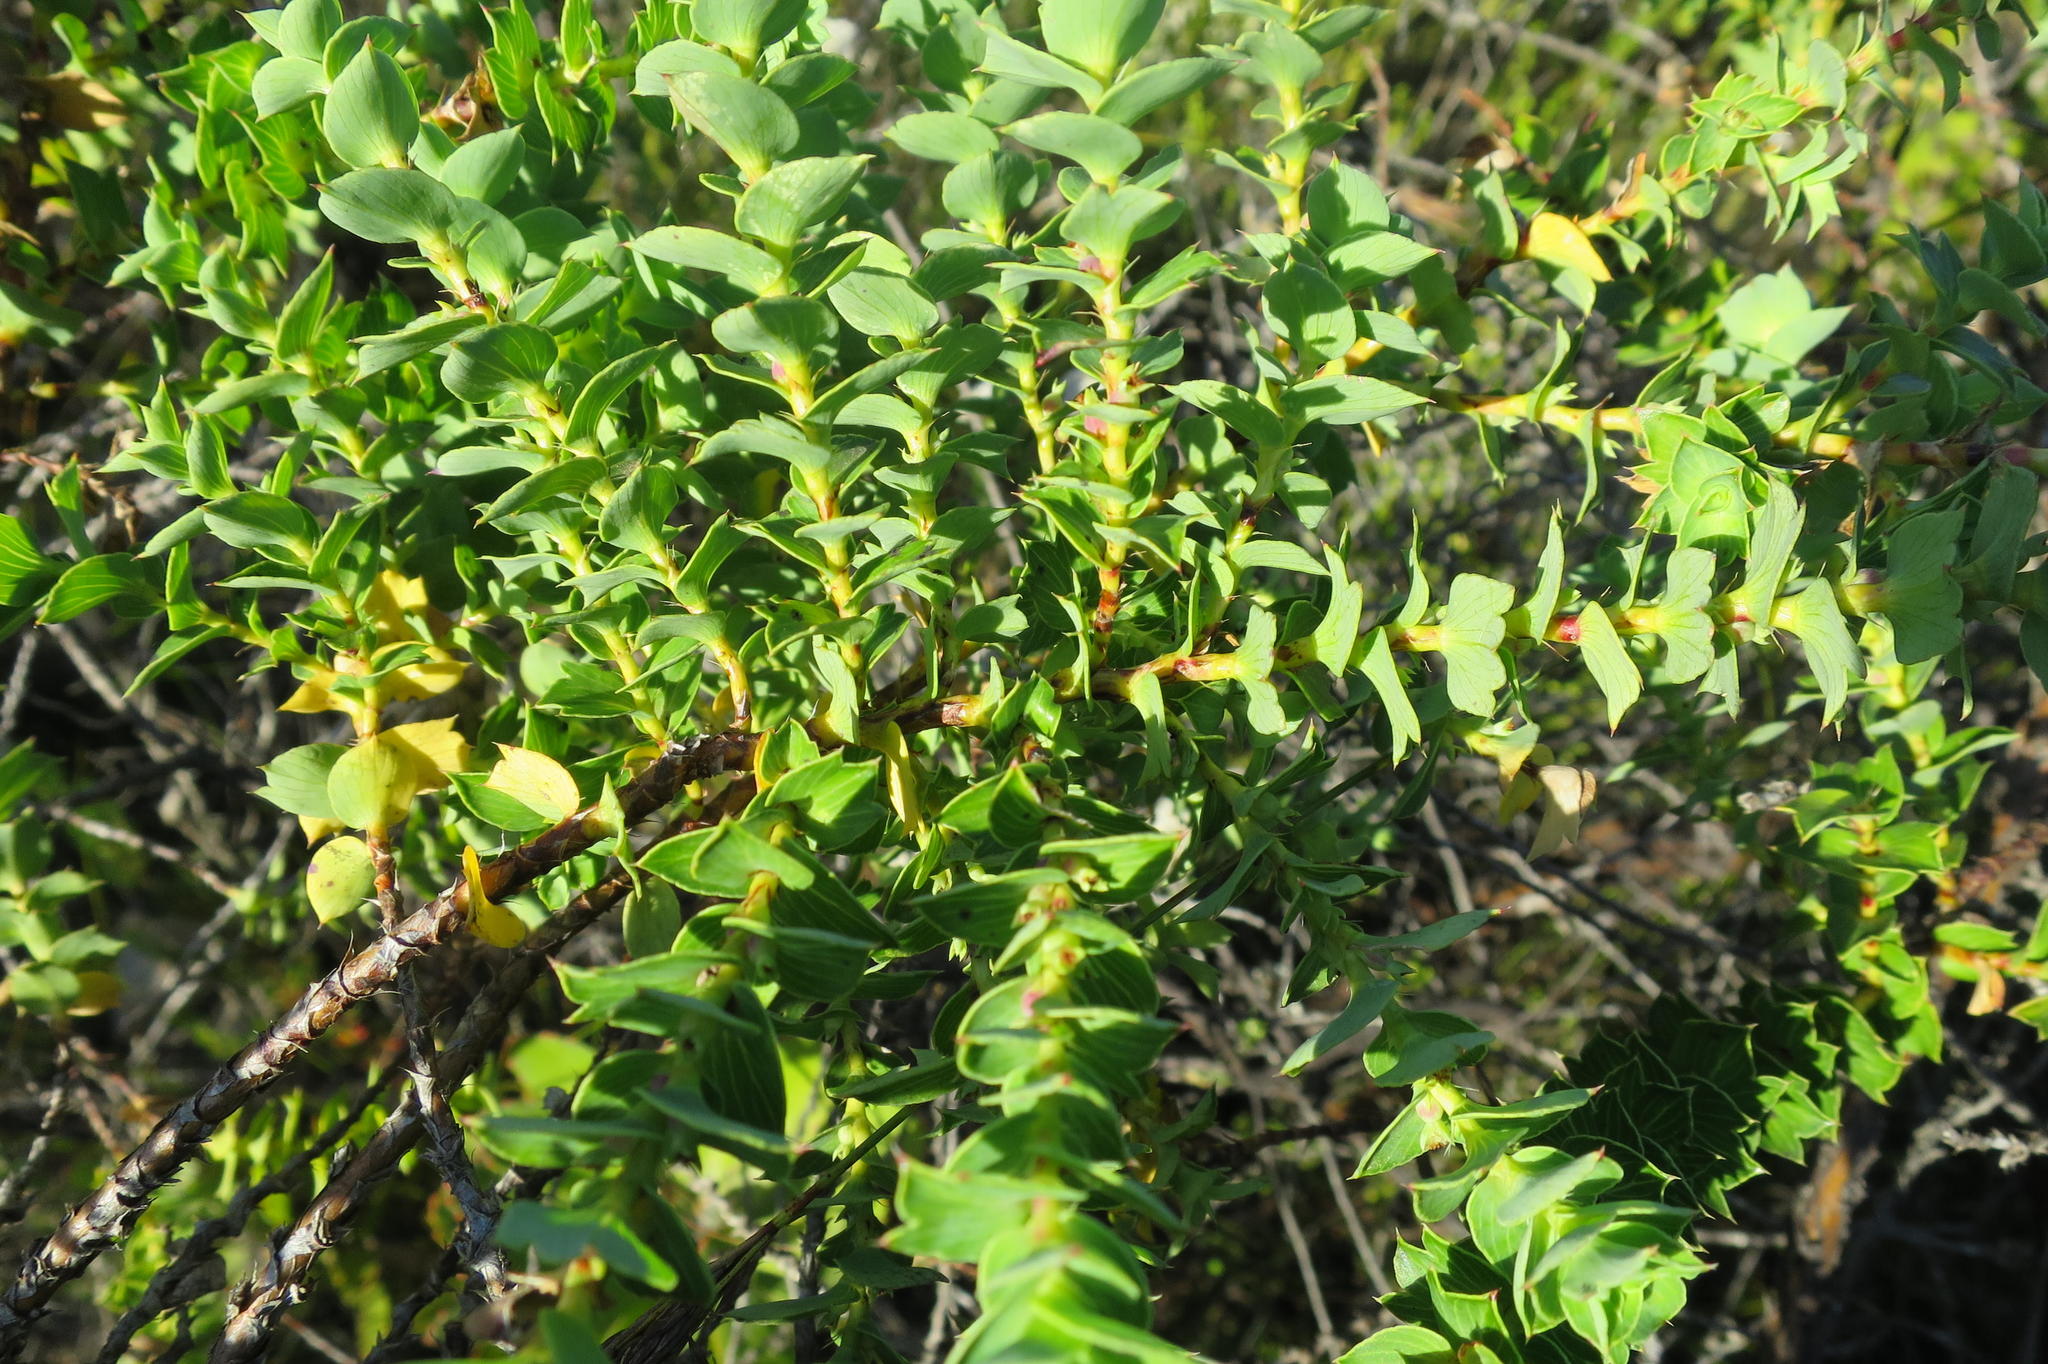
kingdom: Plantae
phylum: Tracheophyta
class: Magnoliopsida
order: Rosales
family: Rosaceae
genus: Cliffortia
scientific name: Cliffortia schlechteri
